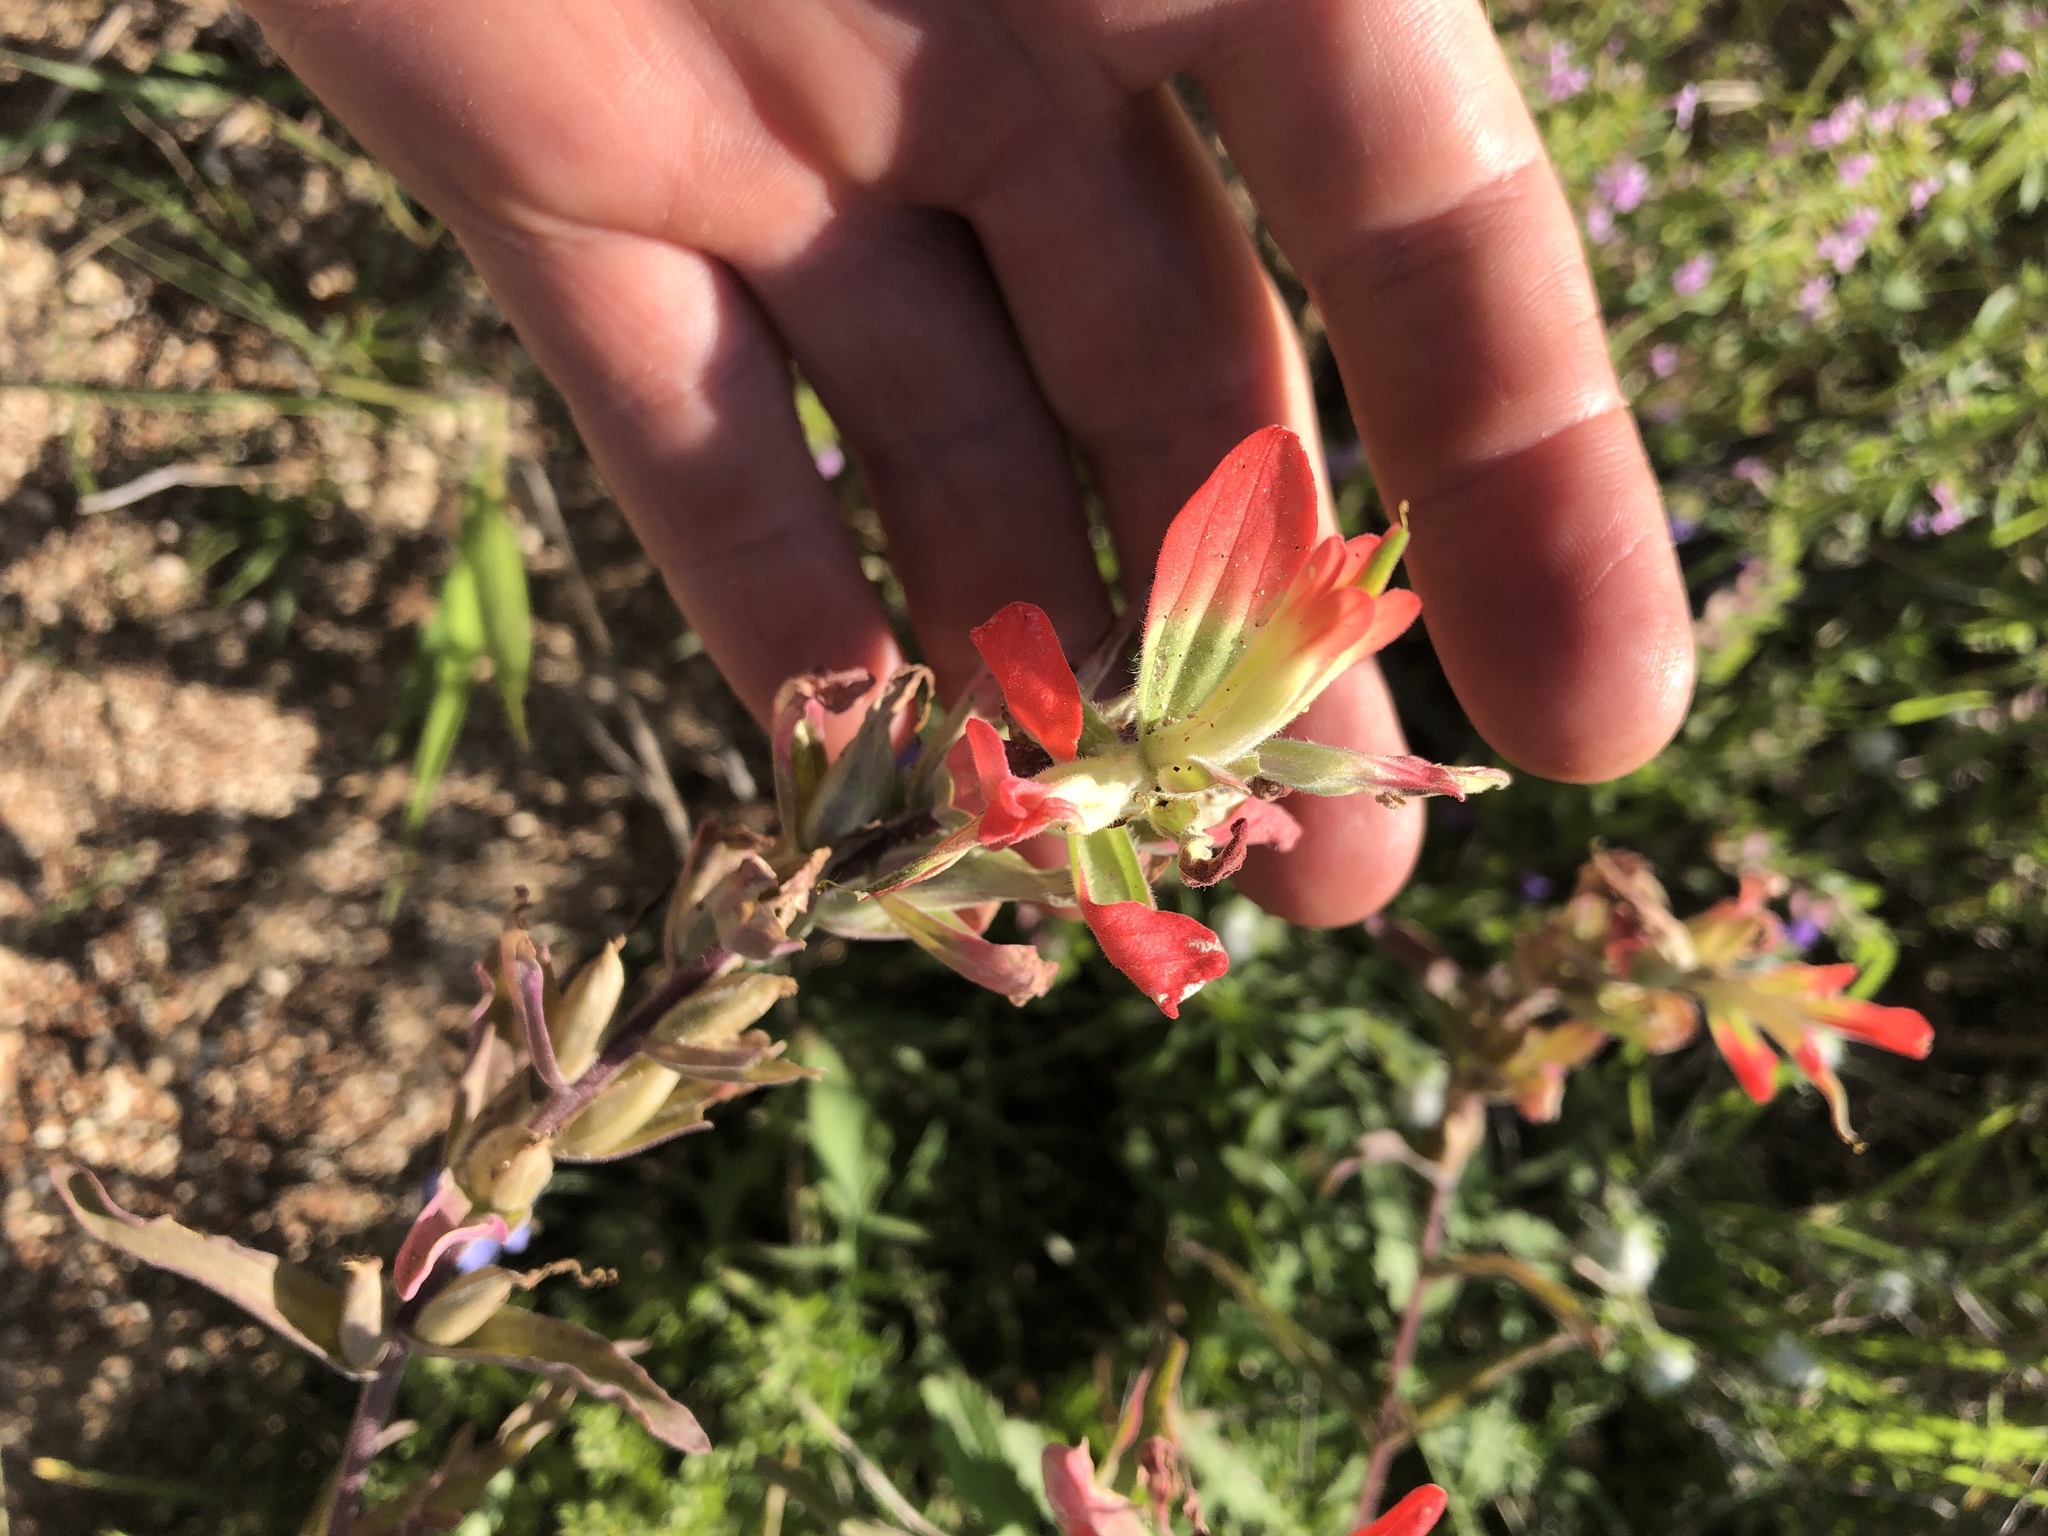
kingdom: Plantae
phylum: Tracheophyta
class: Magnoliopsida
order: Lamiales
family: Orobanchaceae
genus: Castilleja
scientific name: Castilleja indivisa
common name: Texas paintbrush
